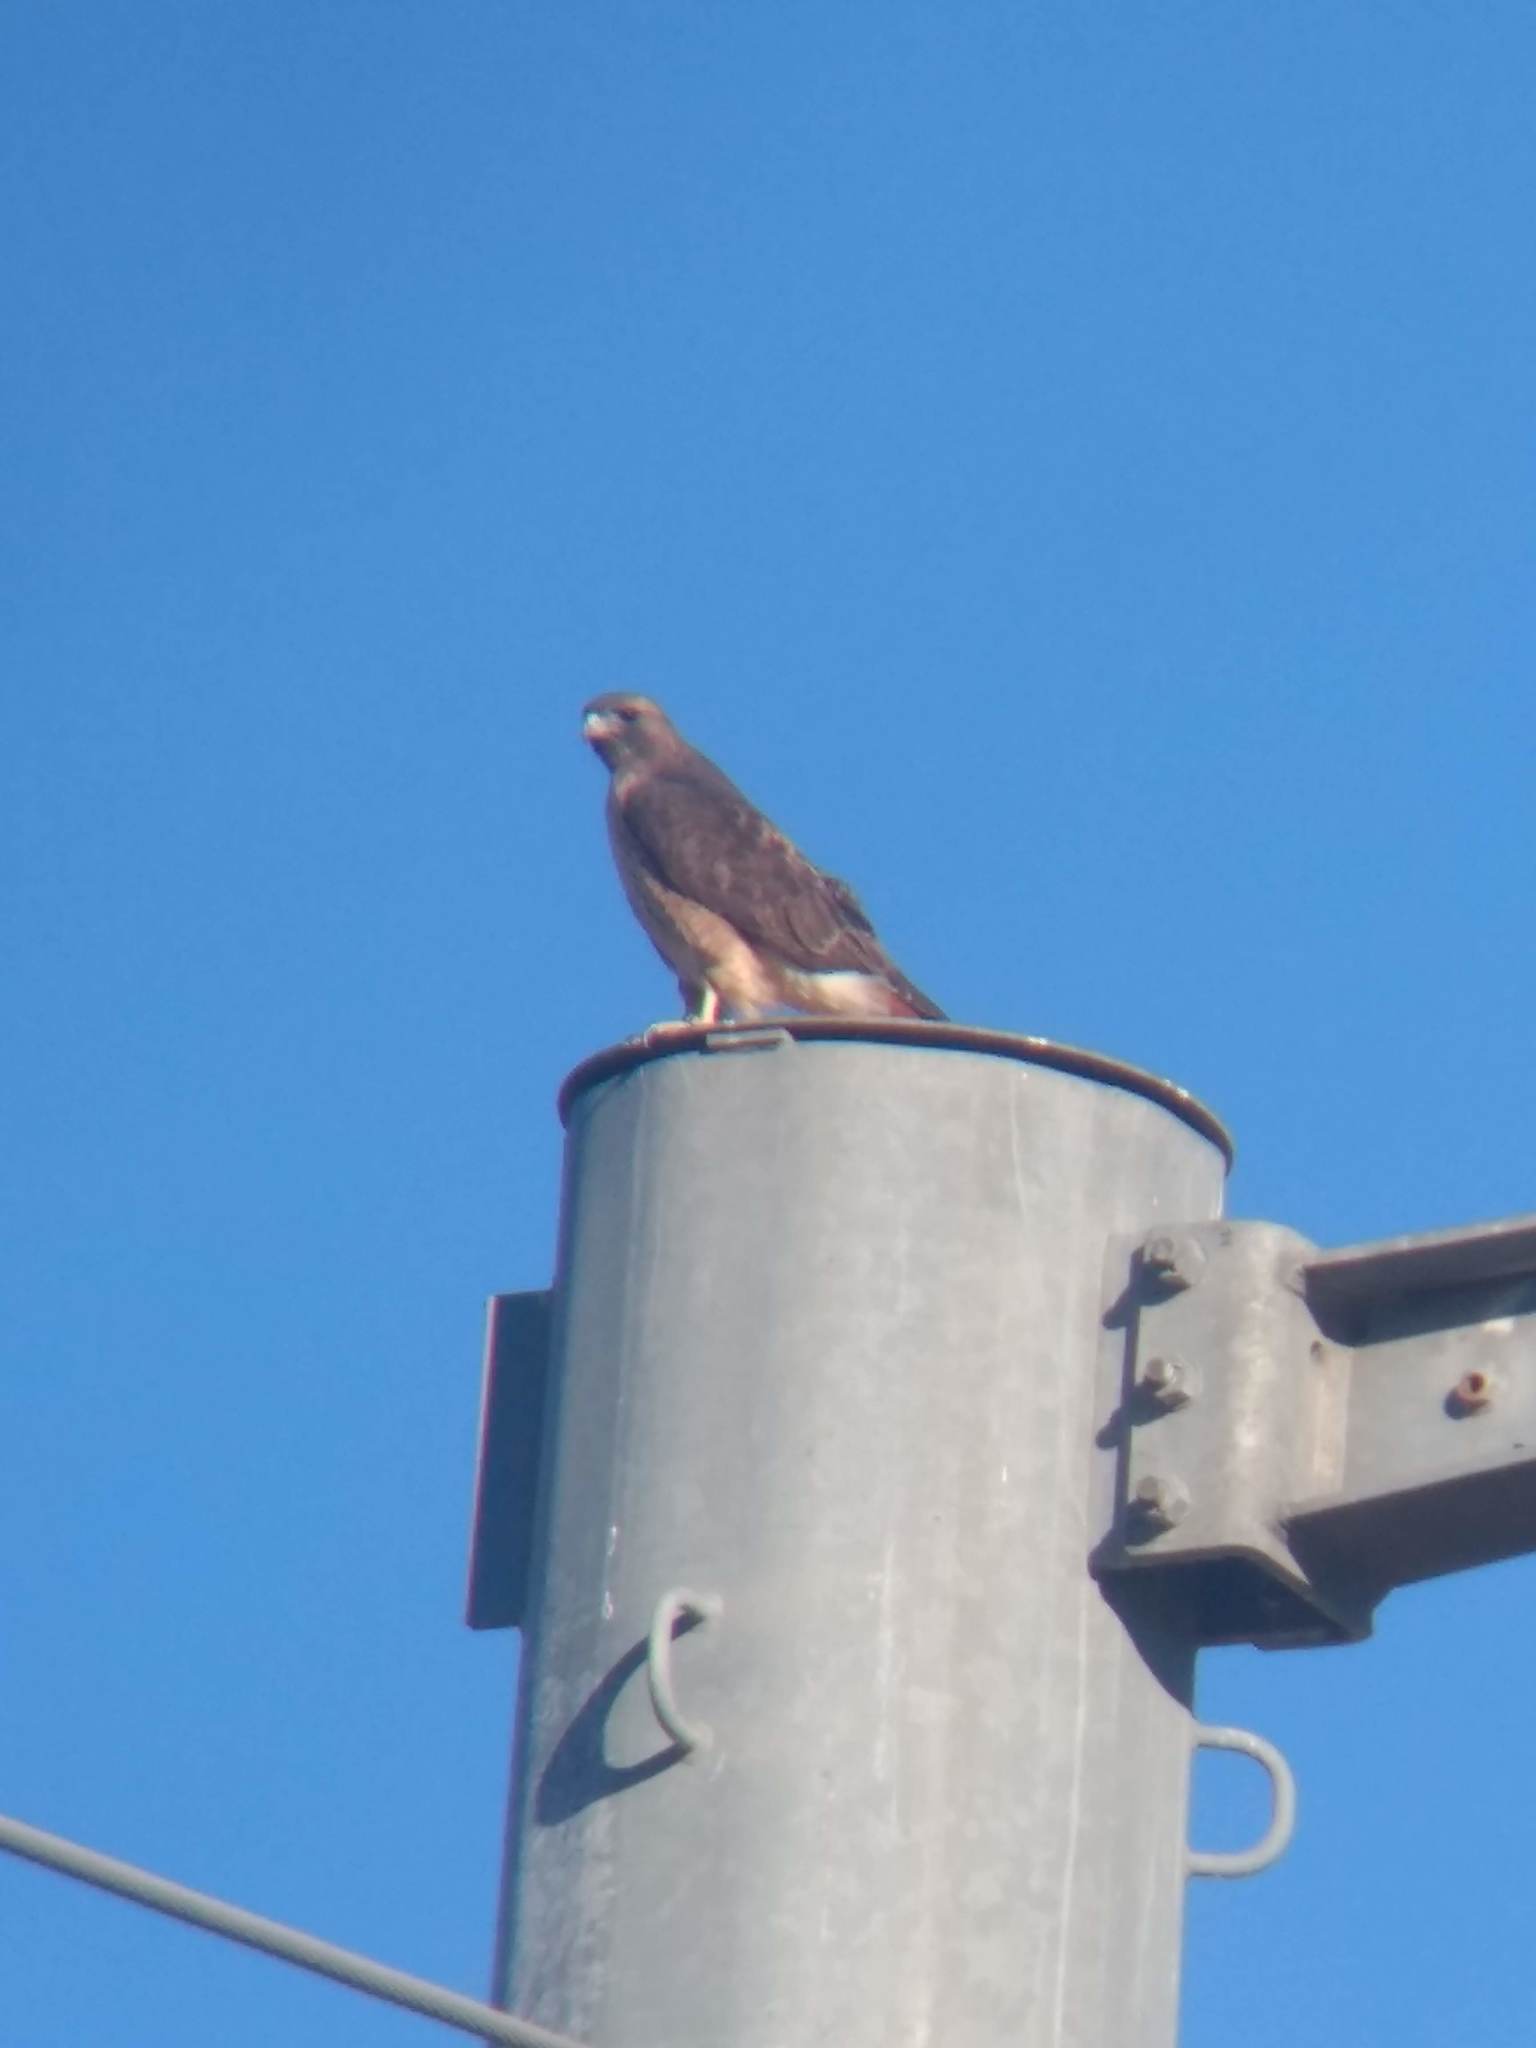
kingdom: Animalia
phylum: Chordata
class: Aves
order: Accipitriformes
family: Accipitridae
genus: Buteo
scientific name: Buteo jamaicensis
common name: Red-tailed hawk
